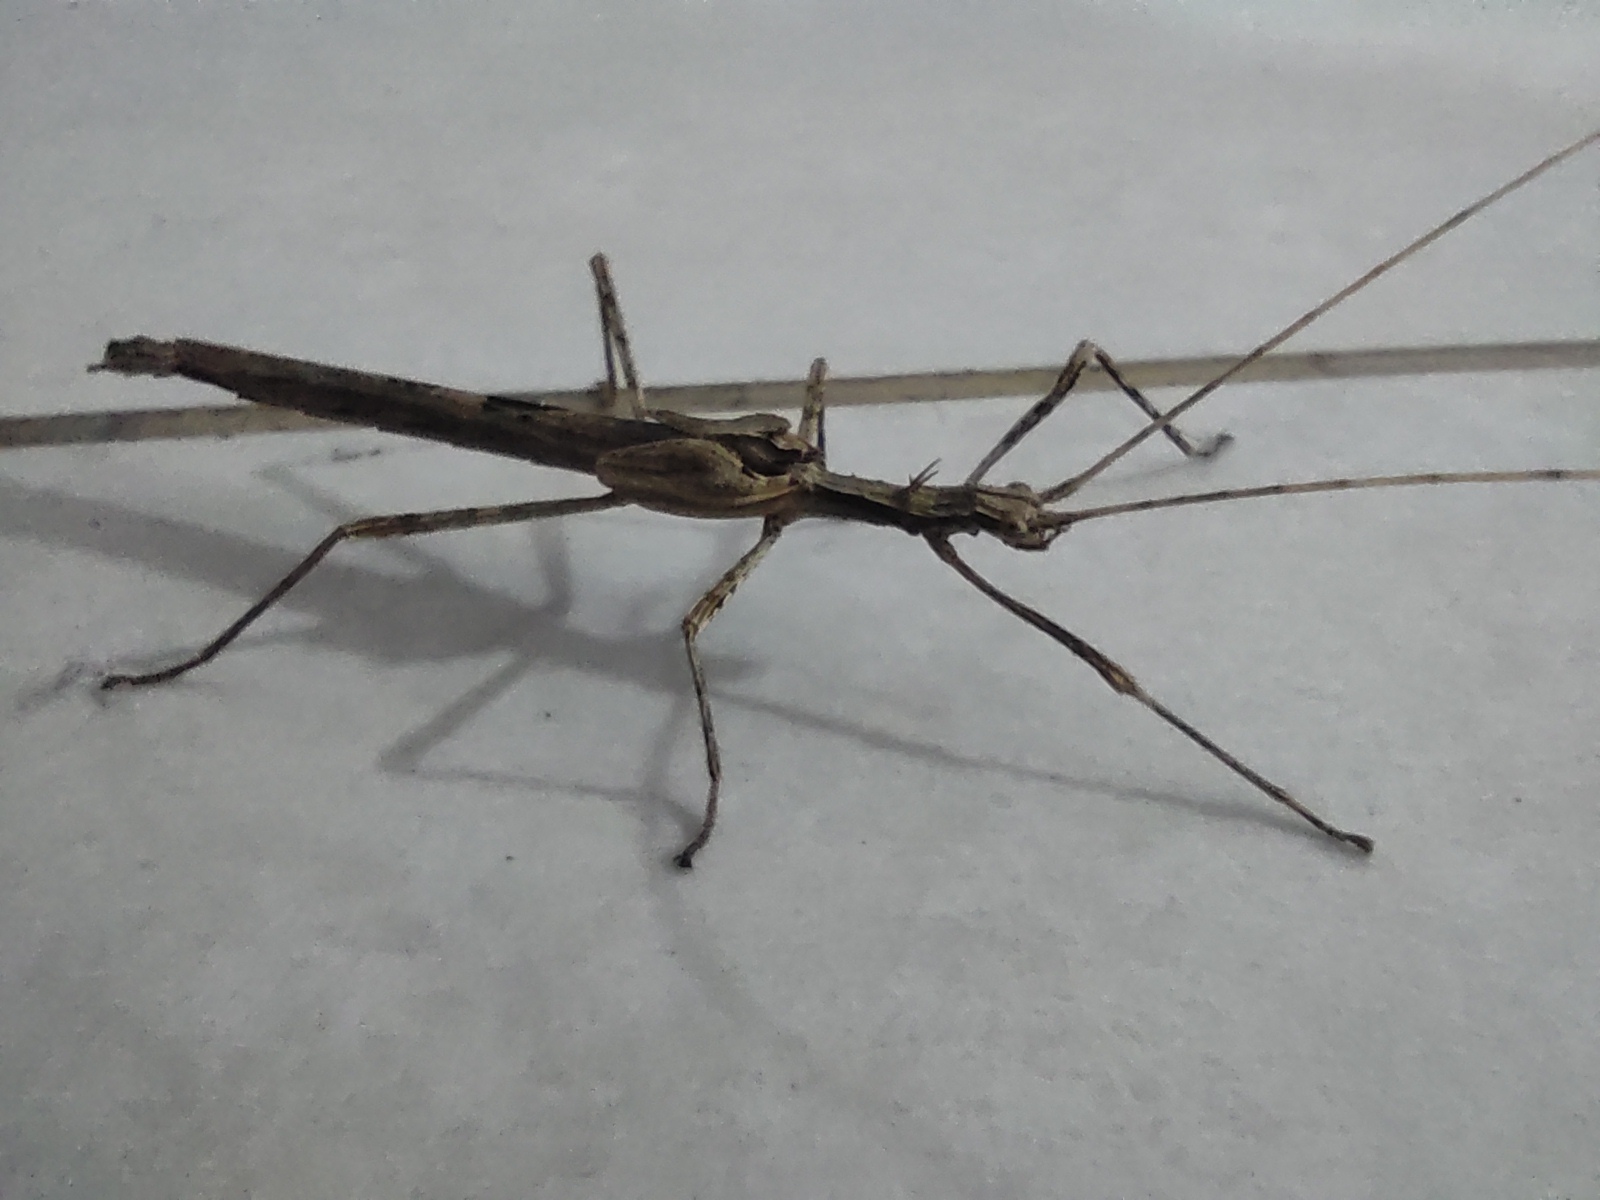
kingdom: Animalia
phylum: Arthropoda
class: Insecta
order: Phasmida
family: Pseudophasmatidae
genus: Xerosoma
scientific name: Xerosoma canaliculatum
